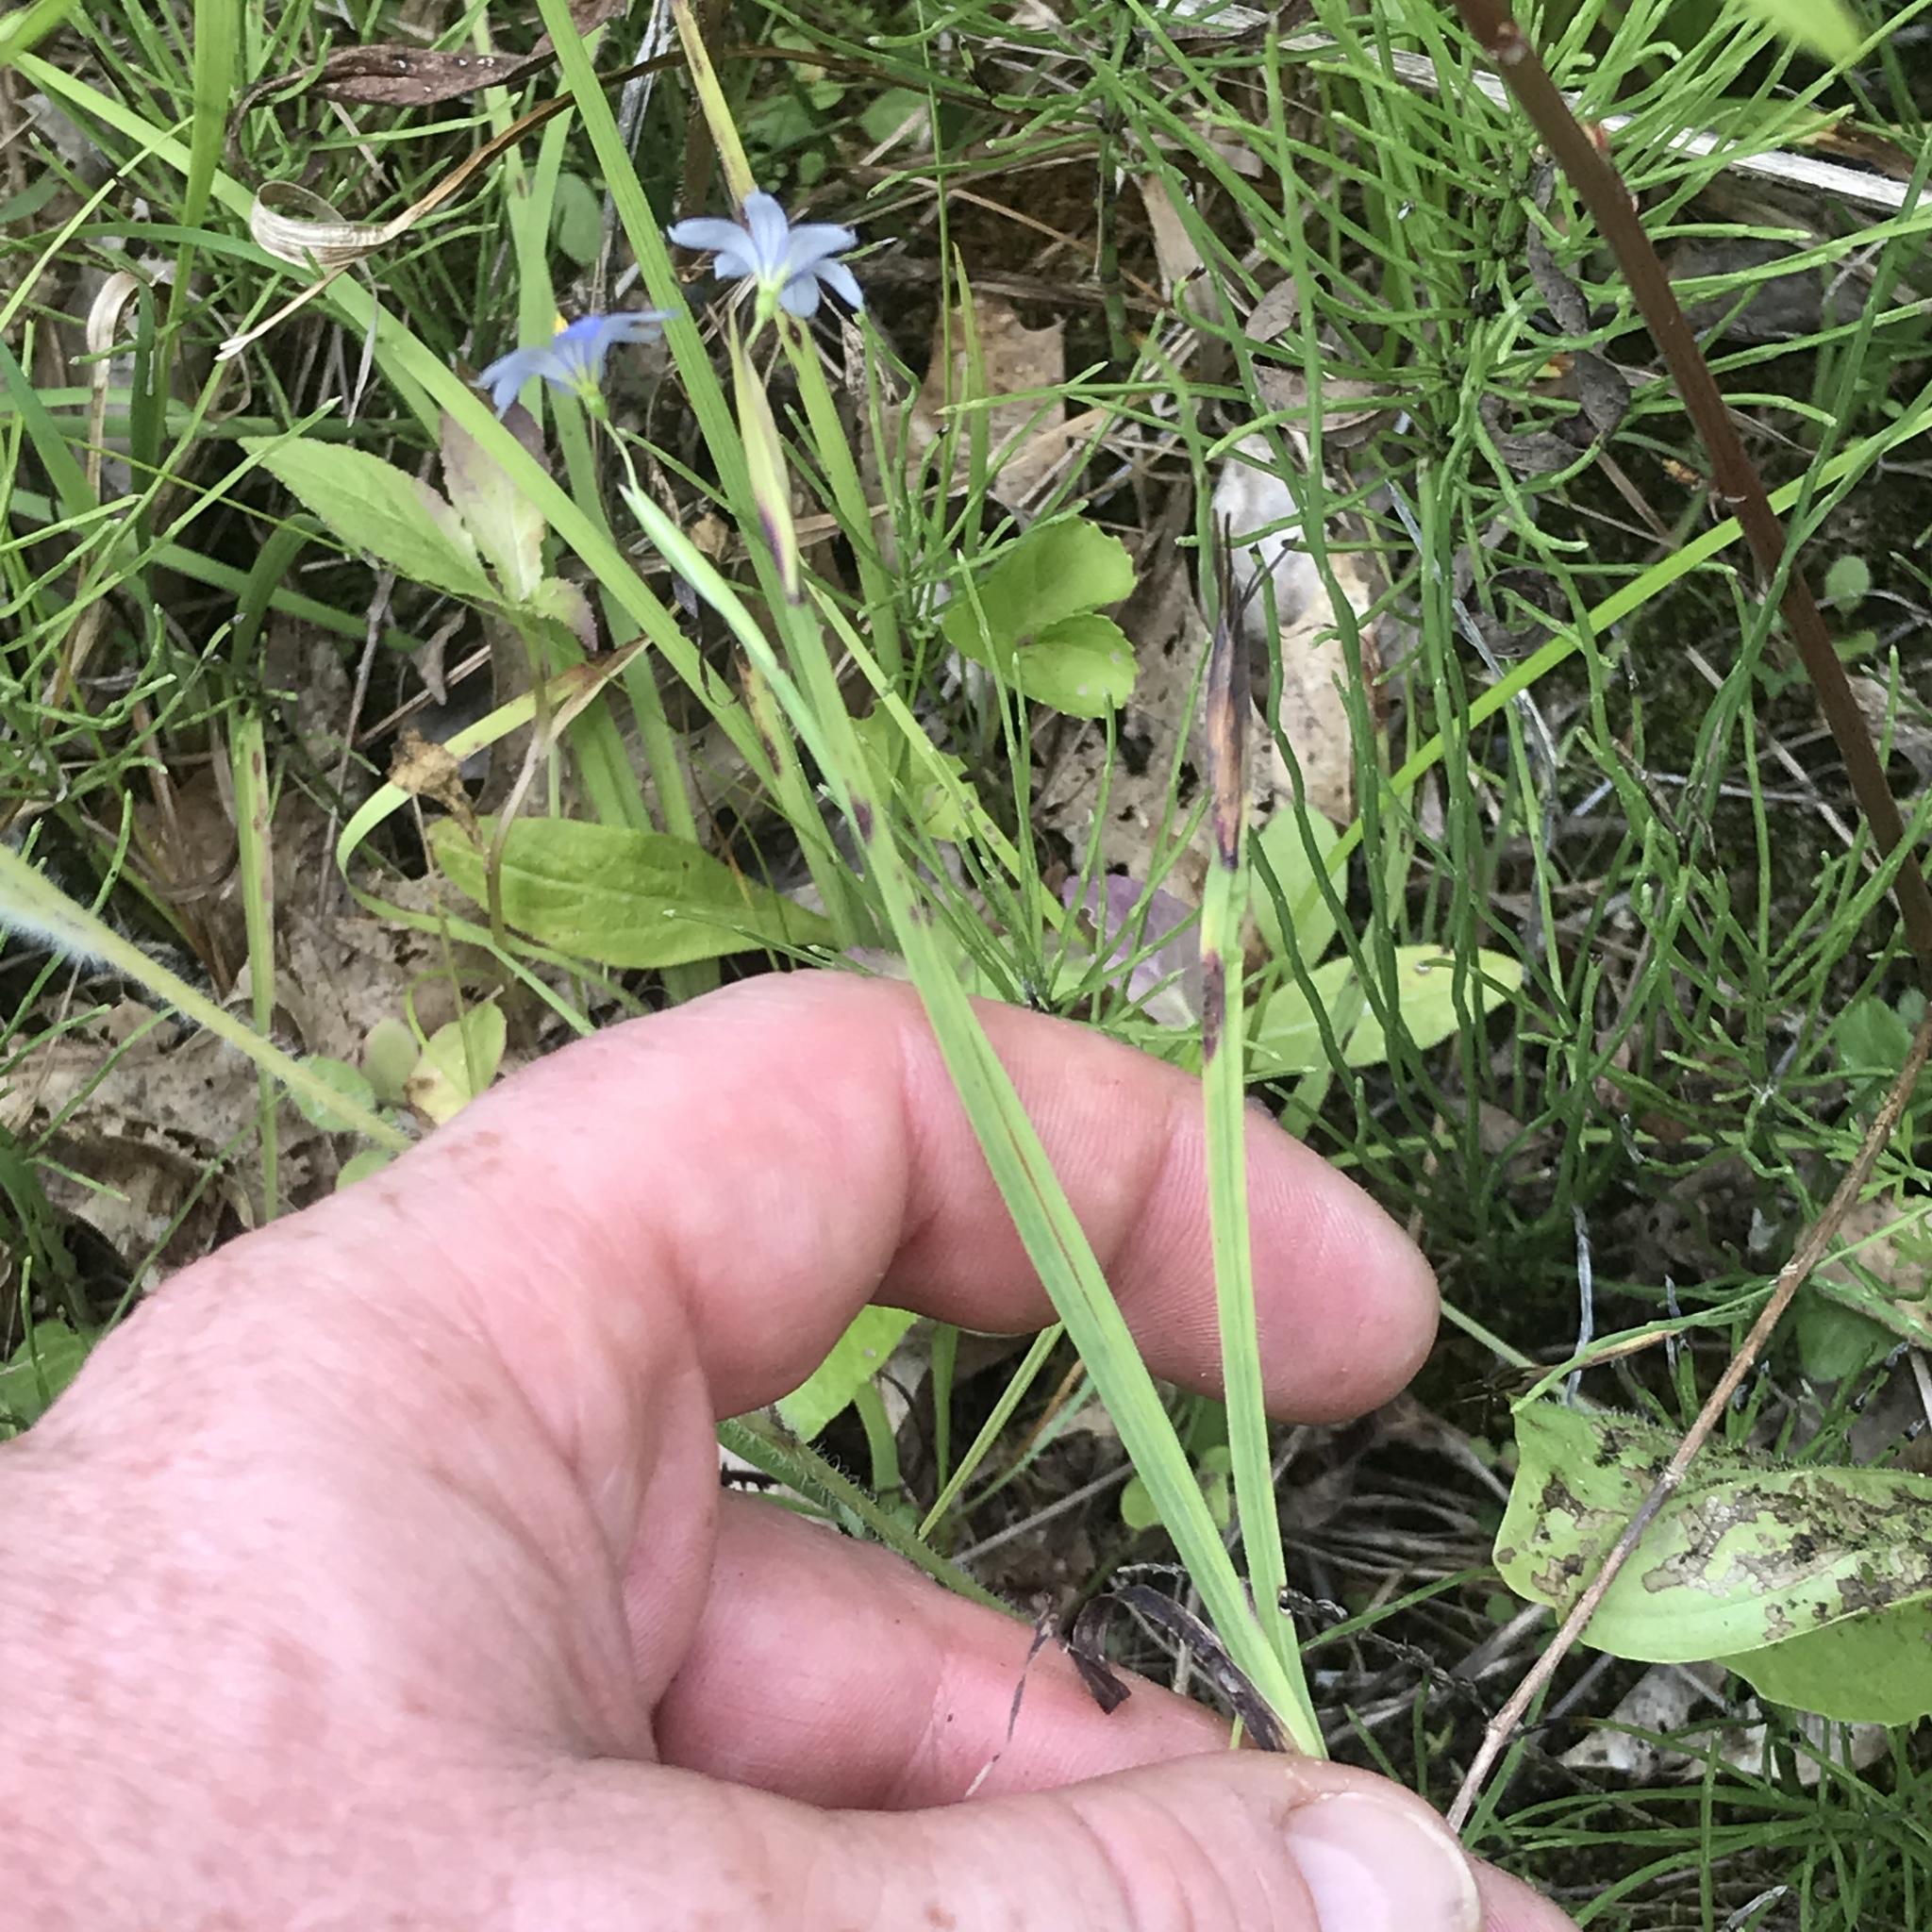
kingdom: Plantae
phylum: Tracheophyta
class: Liliopsida
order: Asparagales
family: Iridaceae
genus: Sisyrinchium
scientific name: Sisyrinchium angustifolium
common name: Narrow-leaf blue-eyed-grass
